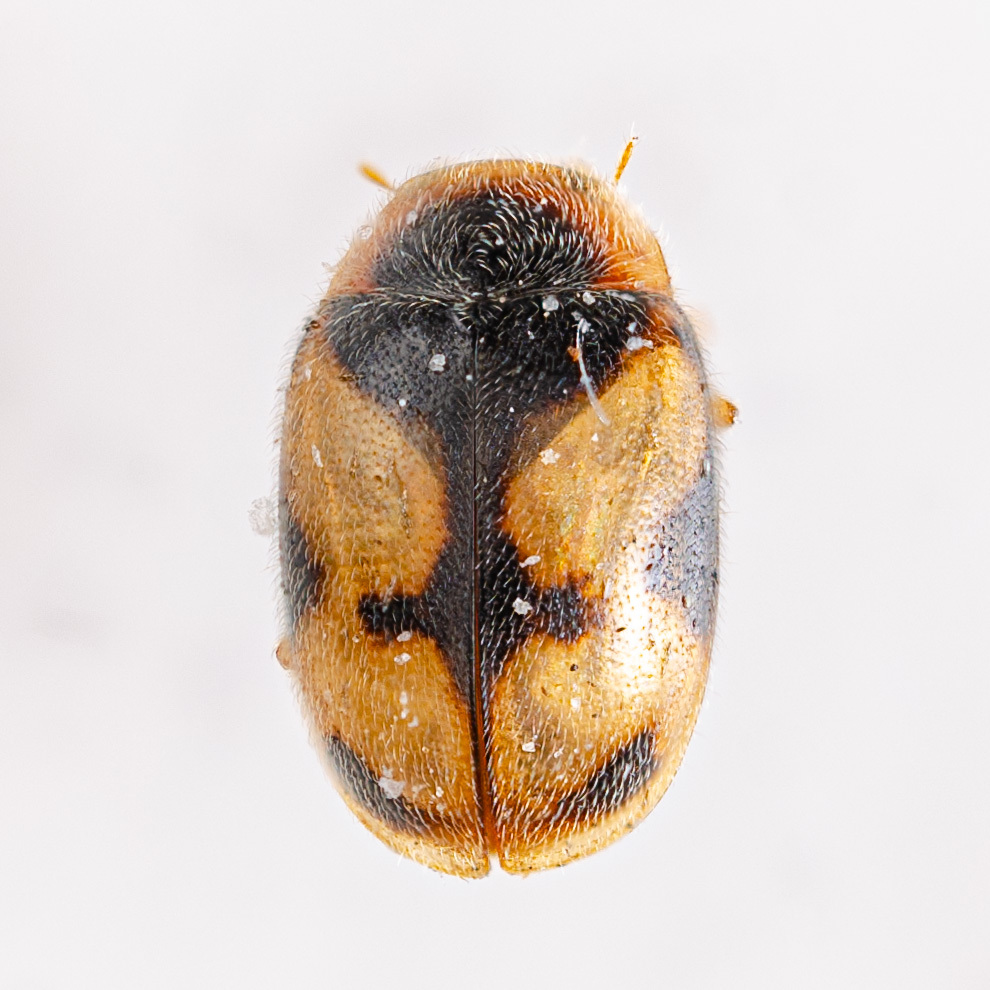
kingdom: Animalia
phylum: Arthropoda
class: Insecta
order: Coleoptera
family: Coccinellidae
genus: Diomus
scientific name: Diomus amabilis
